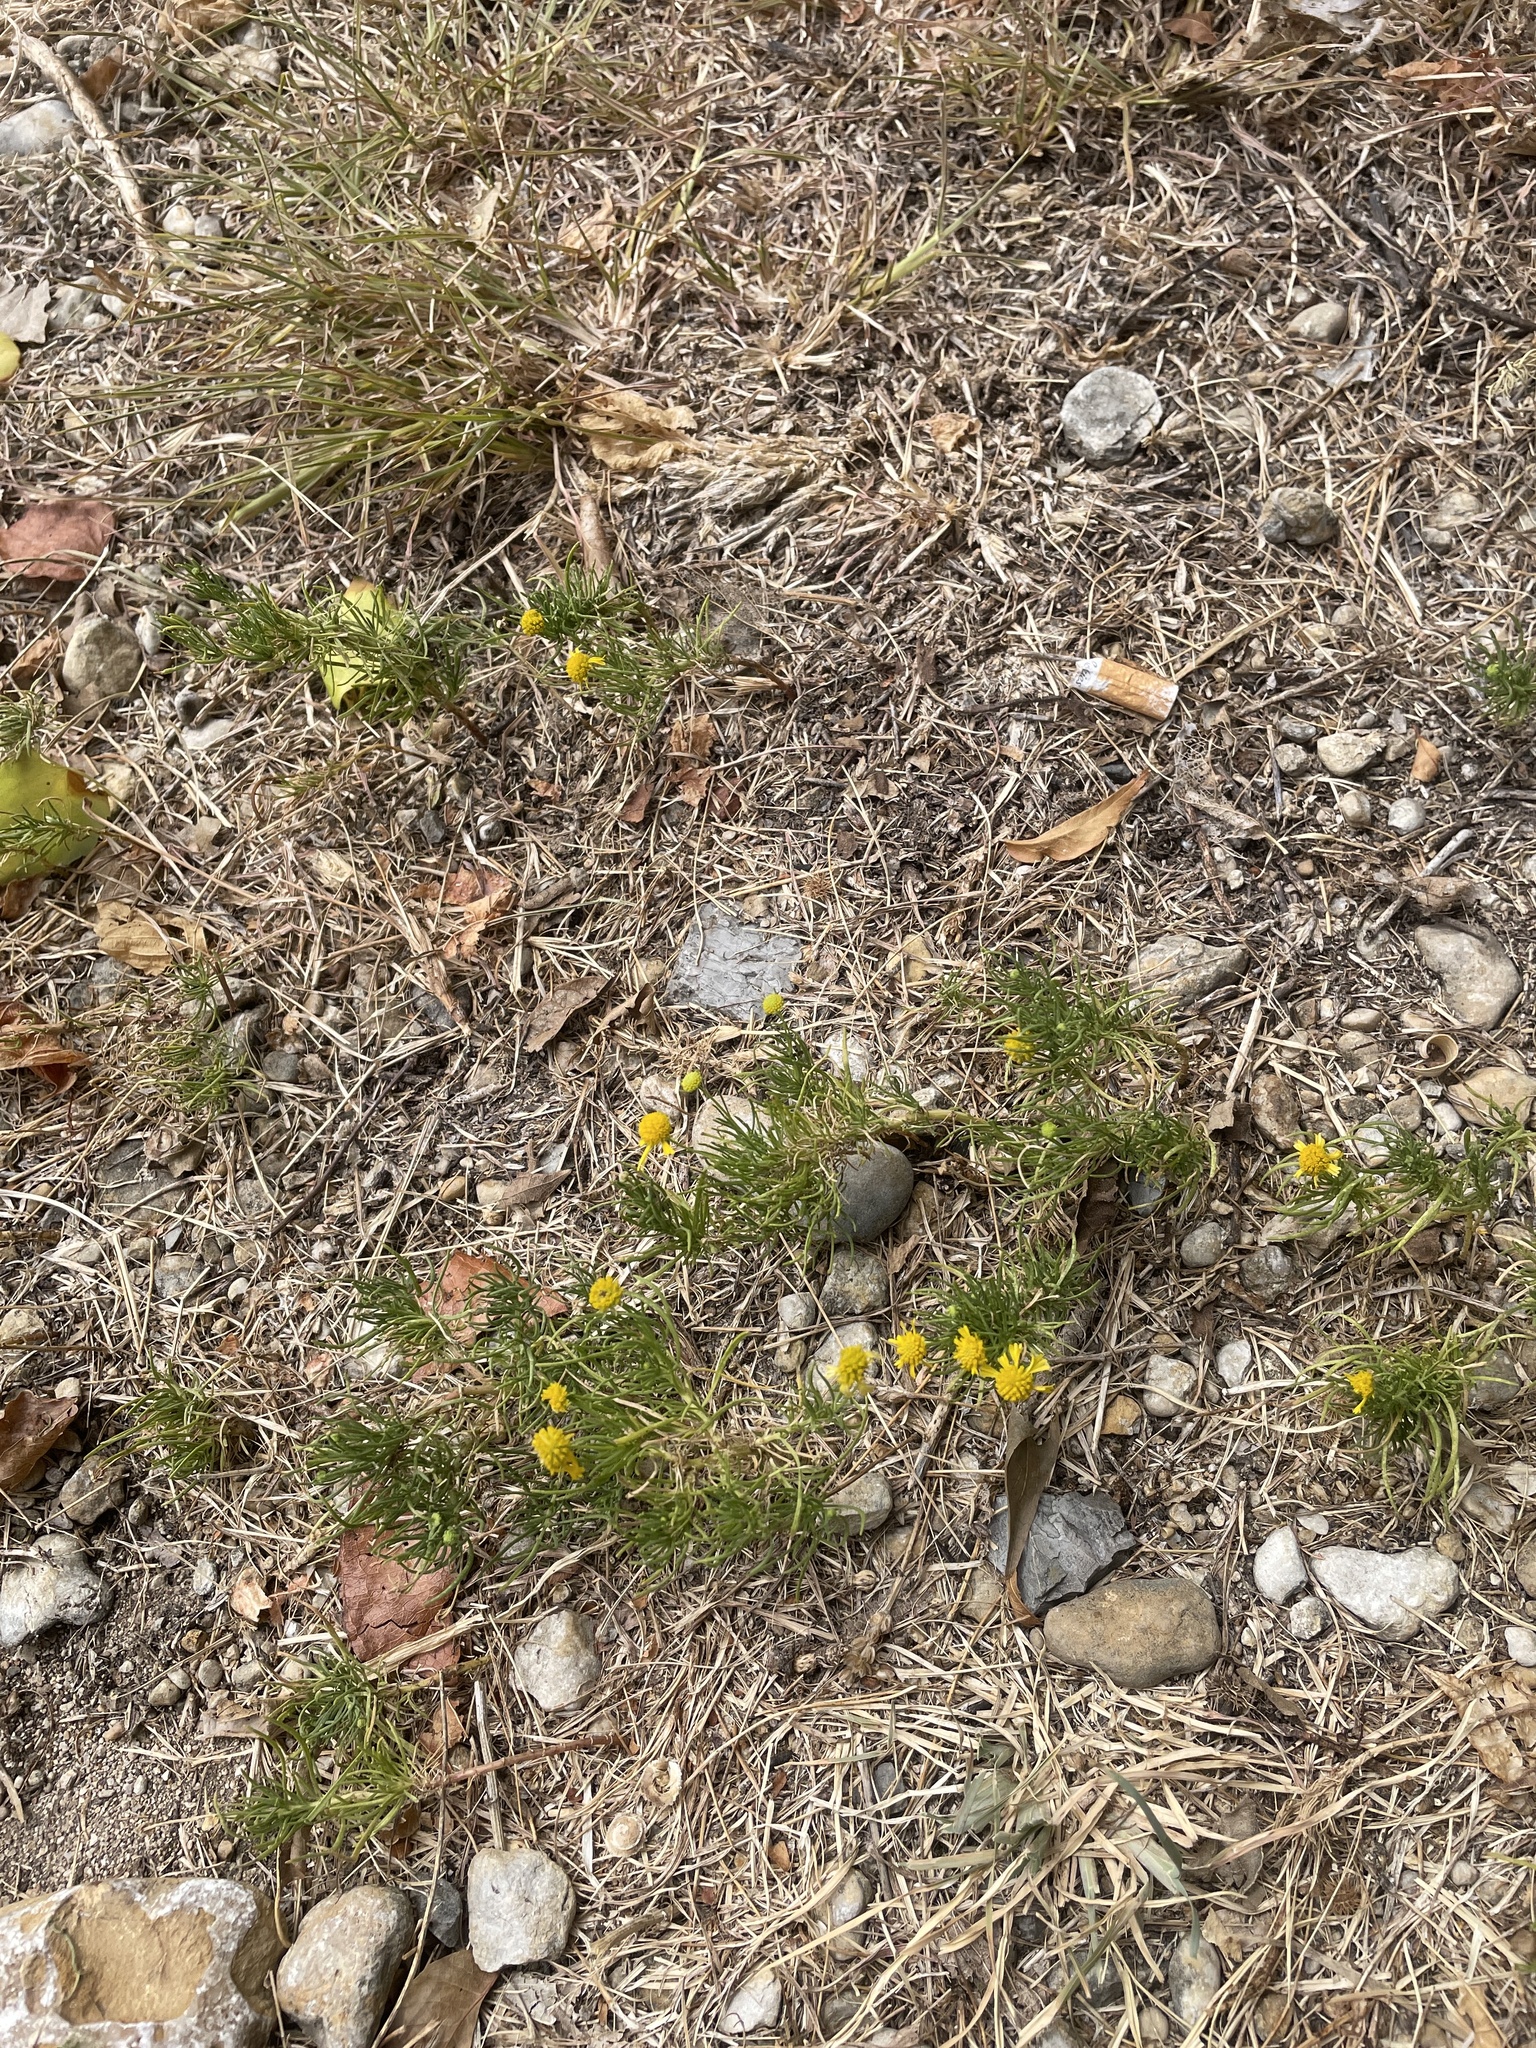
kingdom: Plantae
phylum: Tracheophyta
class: Magnoliopsida
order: Asterales
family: Asteraceae
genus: Helenium
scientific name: Helenium amarum
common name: Bitter sneezeweed
